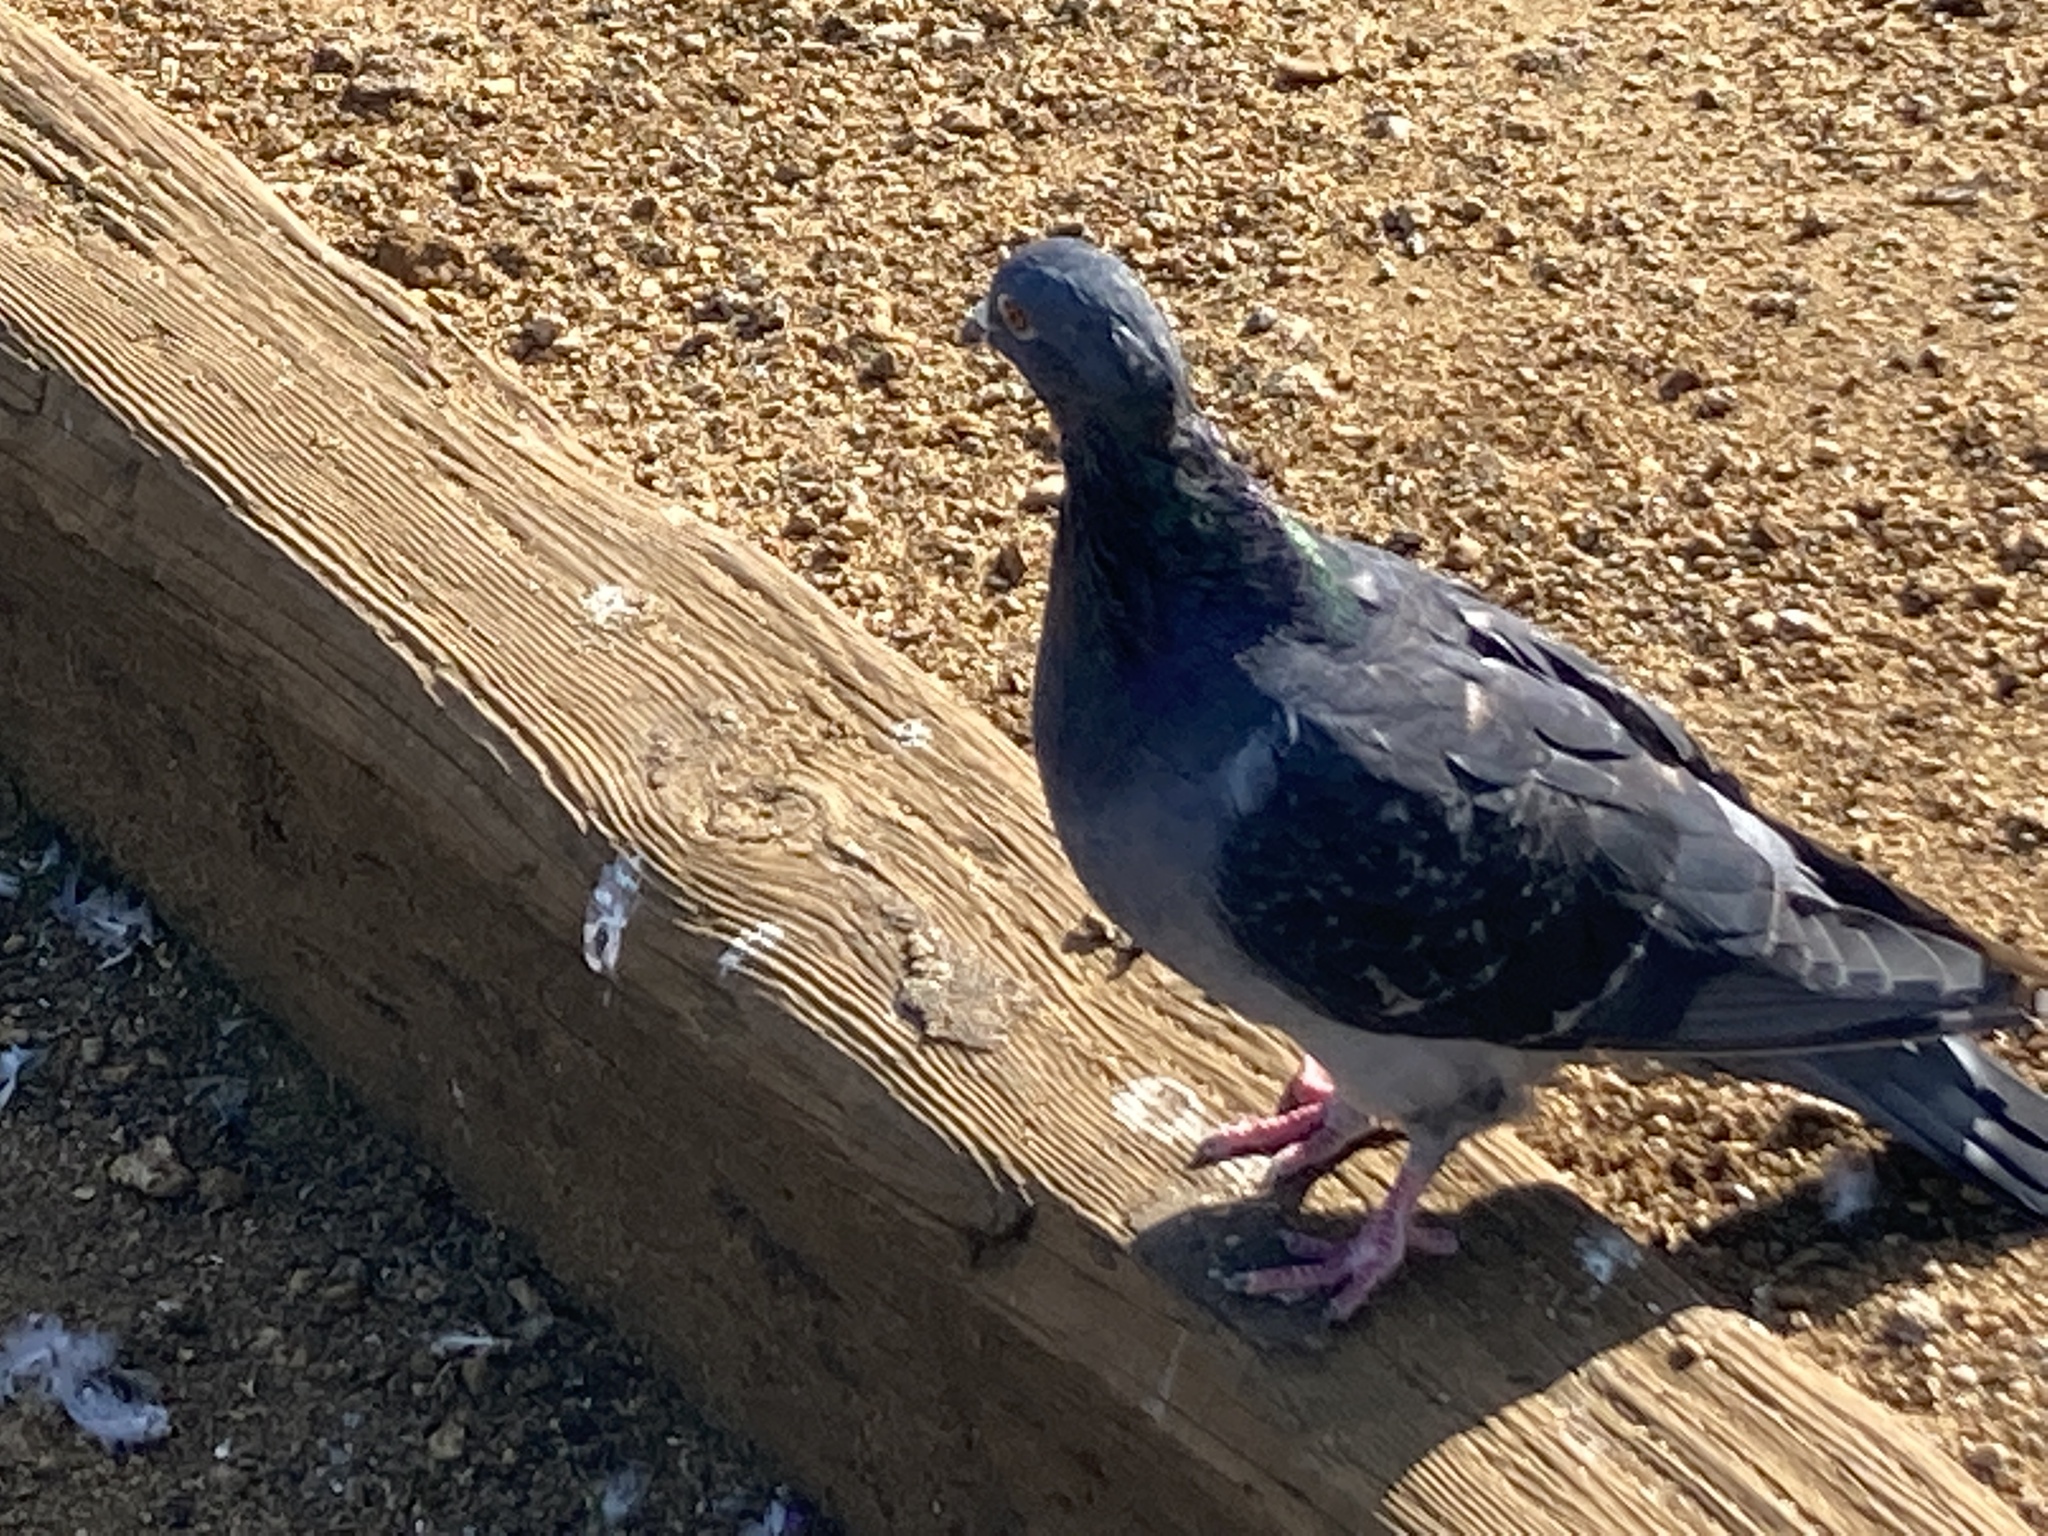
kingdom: Animalia
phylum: Chordata
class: Aves
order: Columbiformes
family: Columbidae
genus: Columba
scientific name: Columba livia
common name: Rock pigeon
